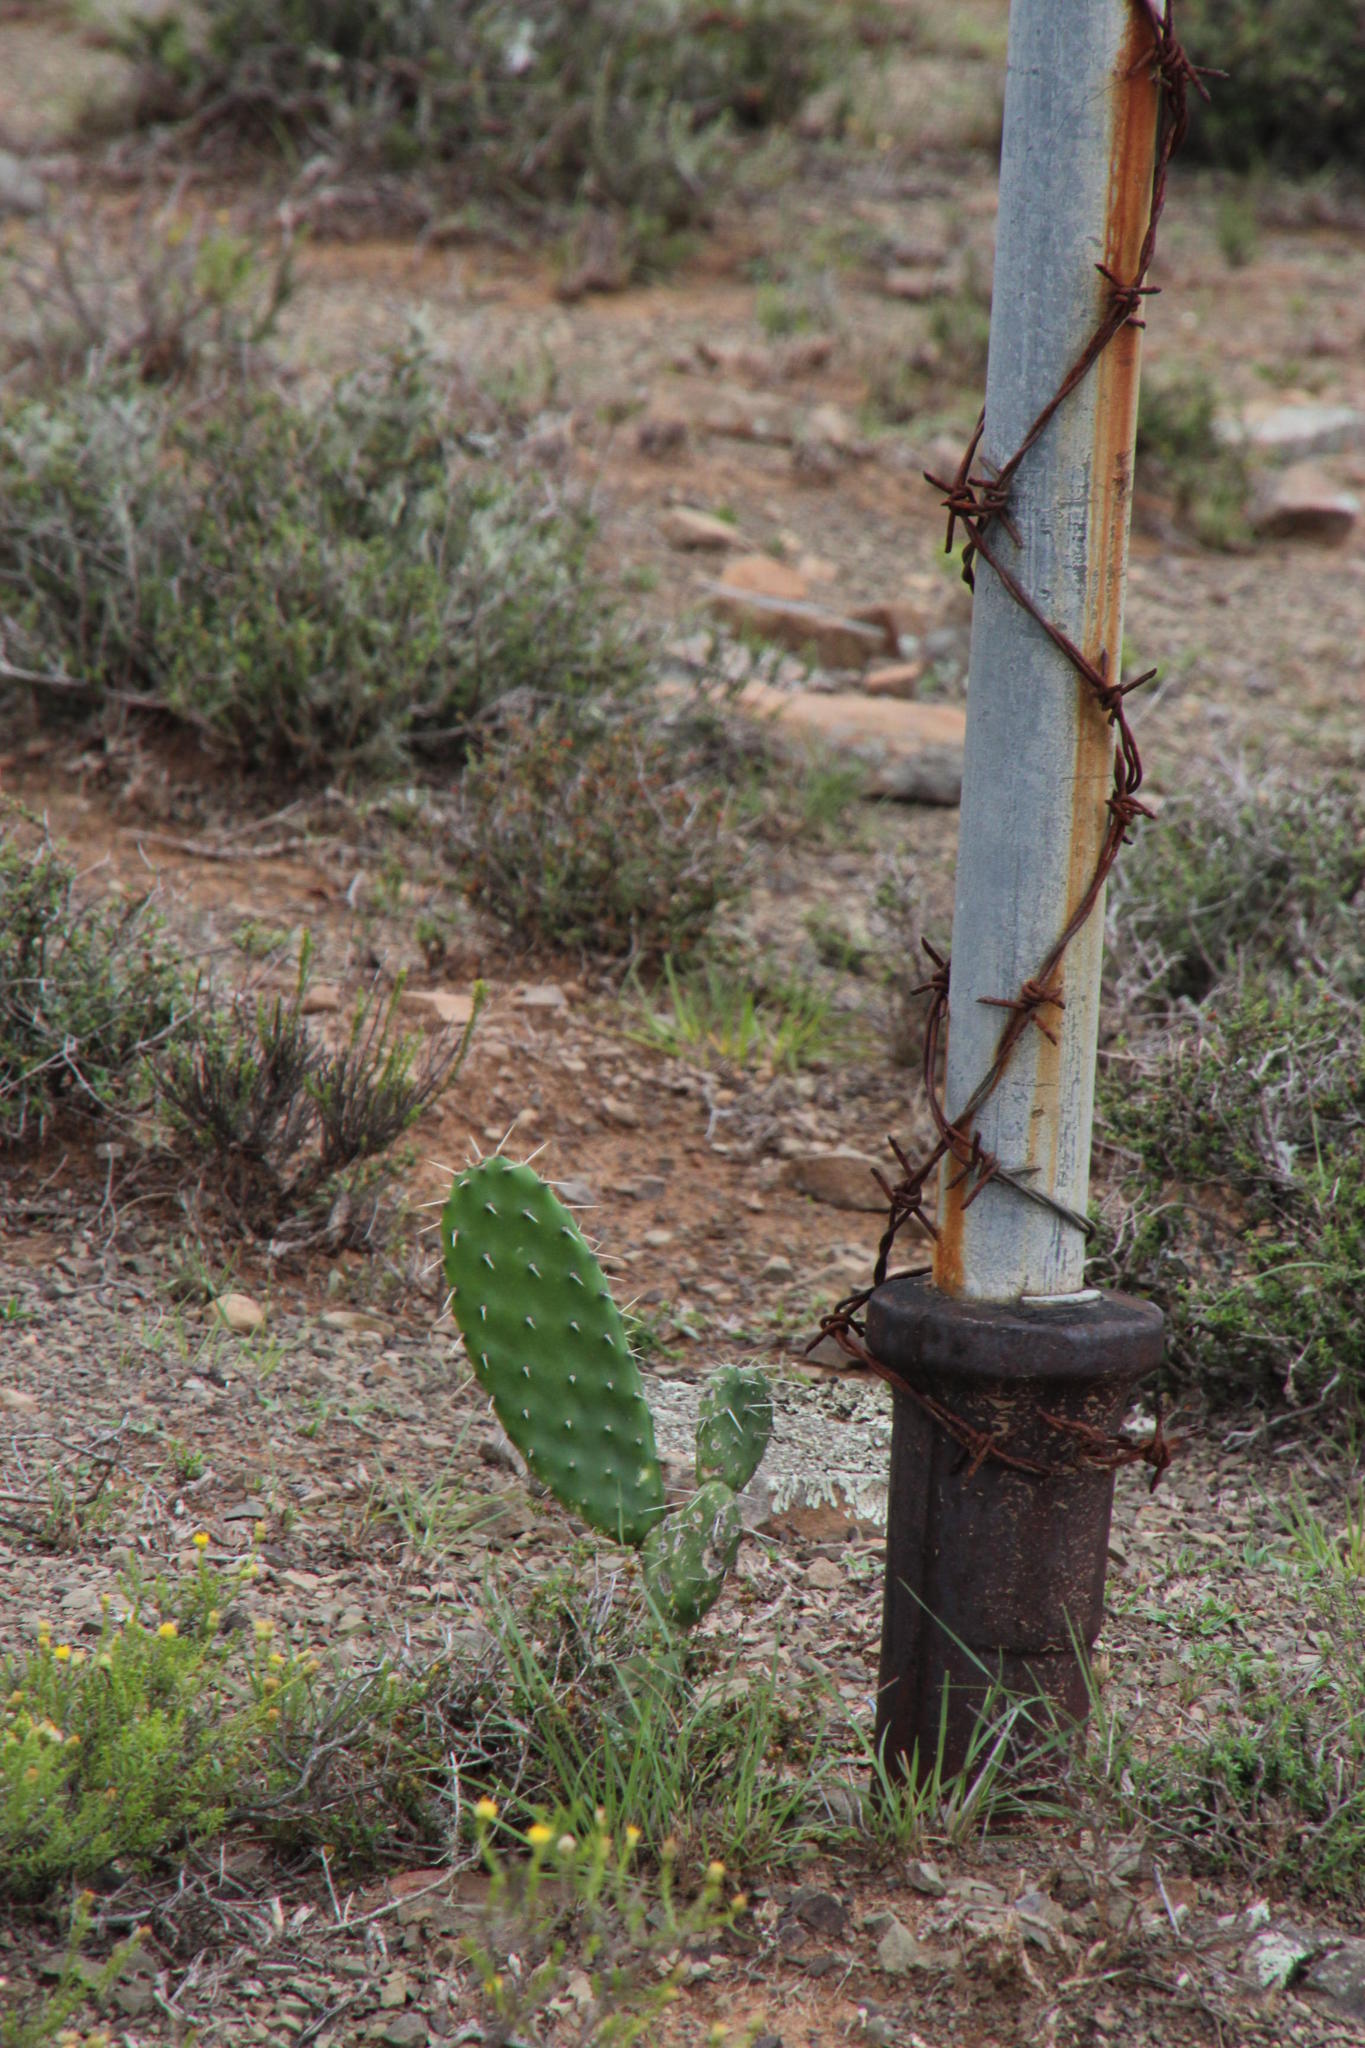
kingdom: Plantae
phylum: Tracheophyta
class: Magnoliopsida
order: Caryophyllales
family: Cactaceae
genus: Opuntia
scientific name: Opuntia ficus-indica
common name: Barbary fig
